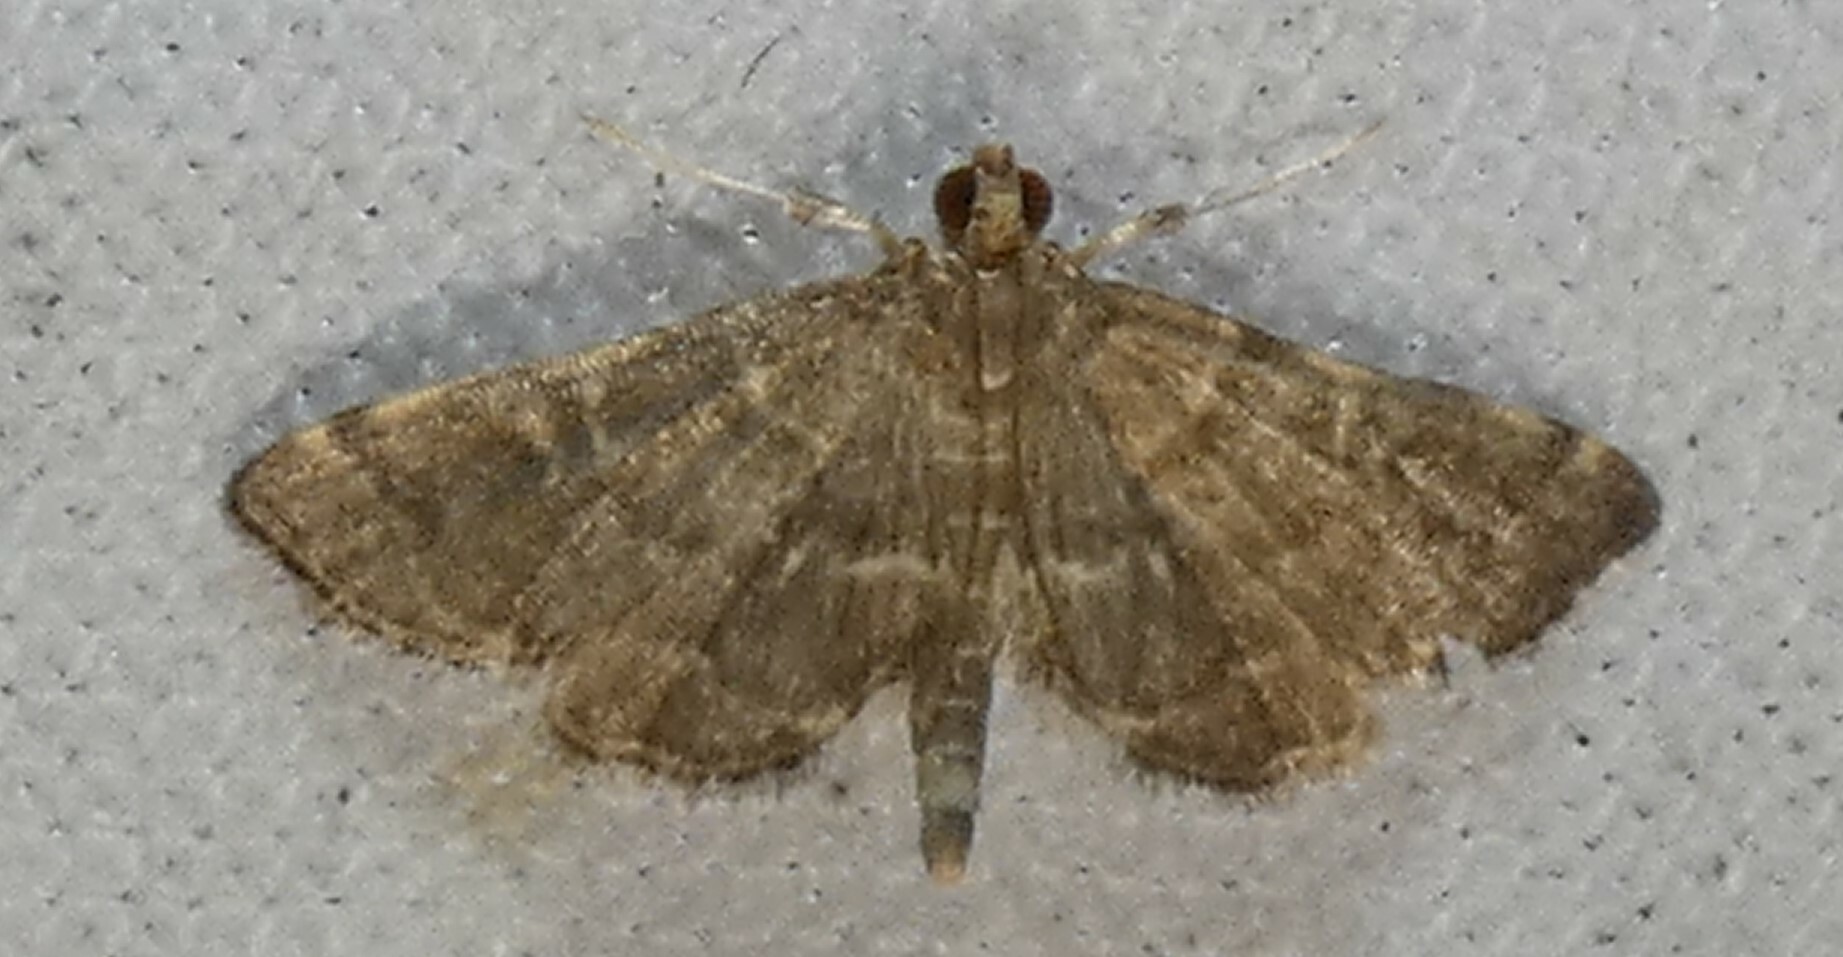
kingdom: Animalia
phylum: Arthropoda
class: Insecta
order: Lepidoptera
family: Crambidae
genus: Anageshna
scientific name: Anageshna primordialis
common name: Yellow-spotted webworm moth
